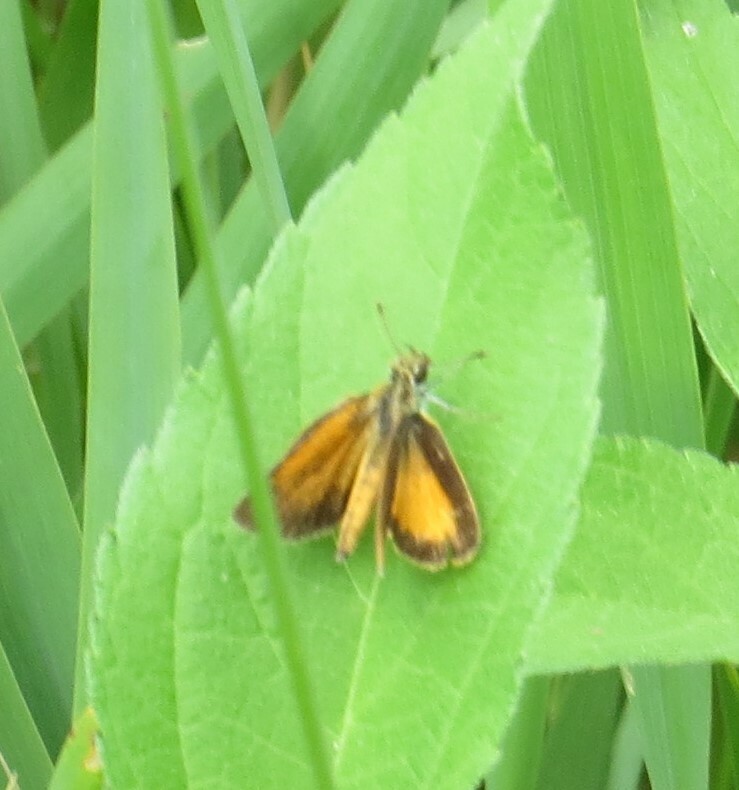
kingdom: Animalia
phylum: Arthropoda
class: Insecta
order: Lepidoptera
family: Hesperiidae
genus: Ancyloxypha
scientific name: Ancyloxypha numitor
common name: Least skipper
